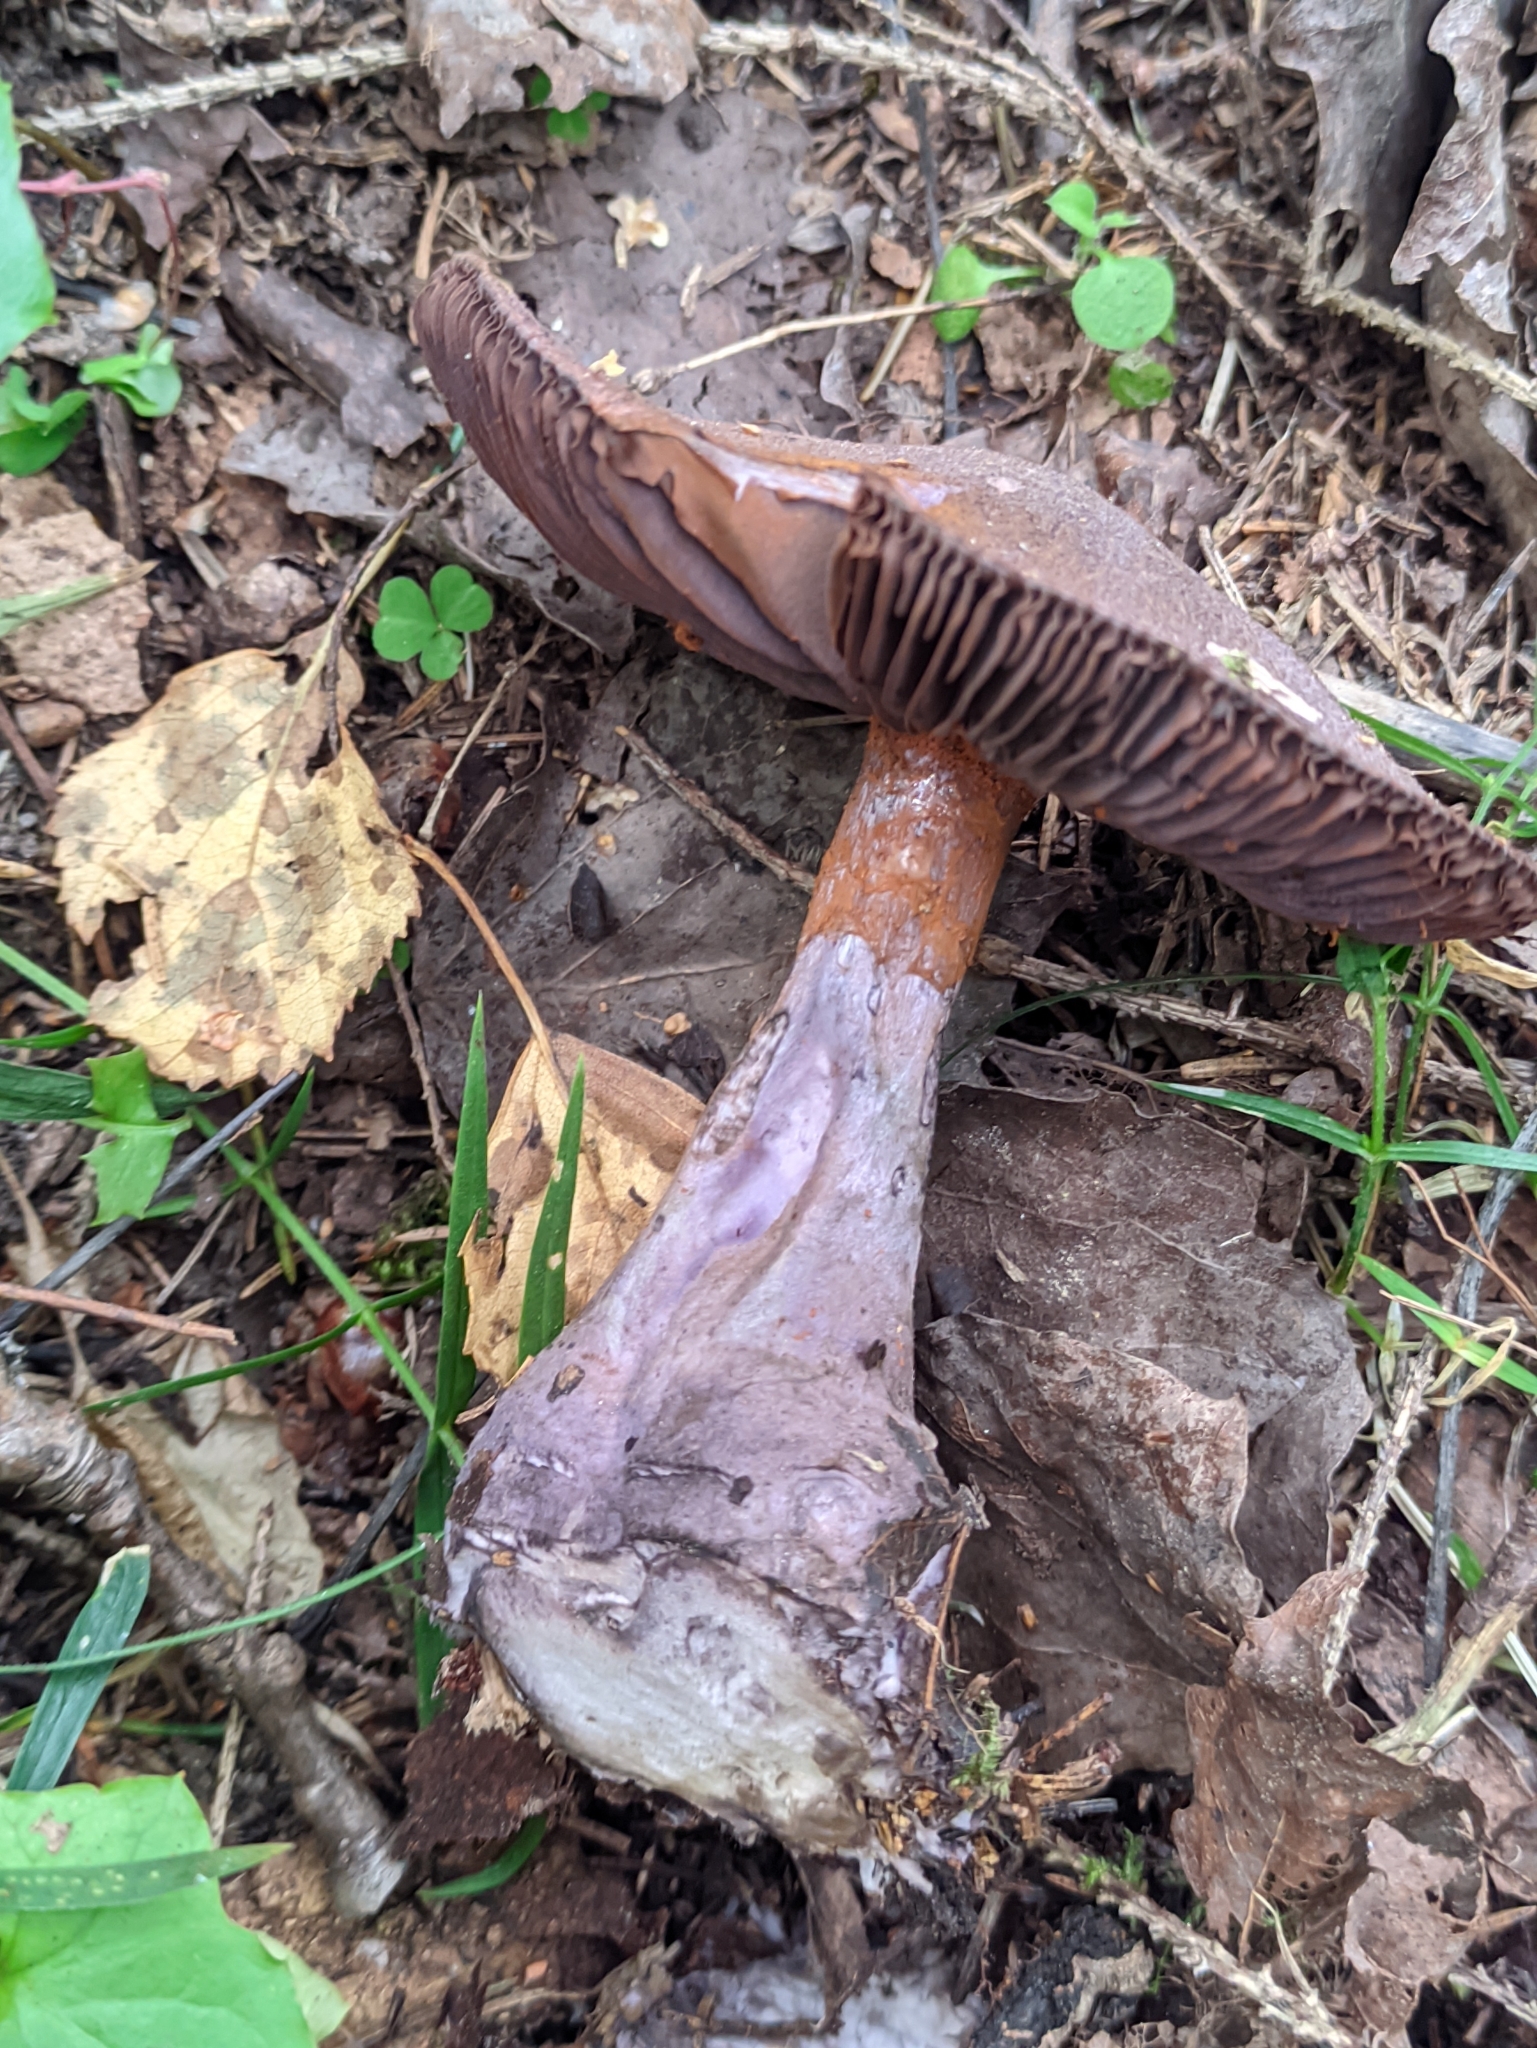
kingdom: Fungi
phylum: Basidiomycota
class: Agaricomycetes
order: Agaricales
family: Cortinariaceae
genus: Cortinarius
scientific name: Cortinarius violaceus
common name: Violet webcap
